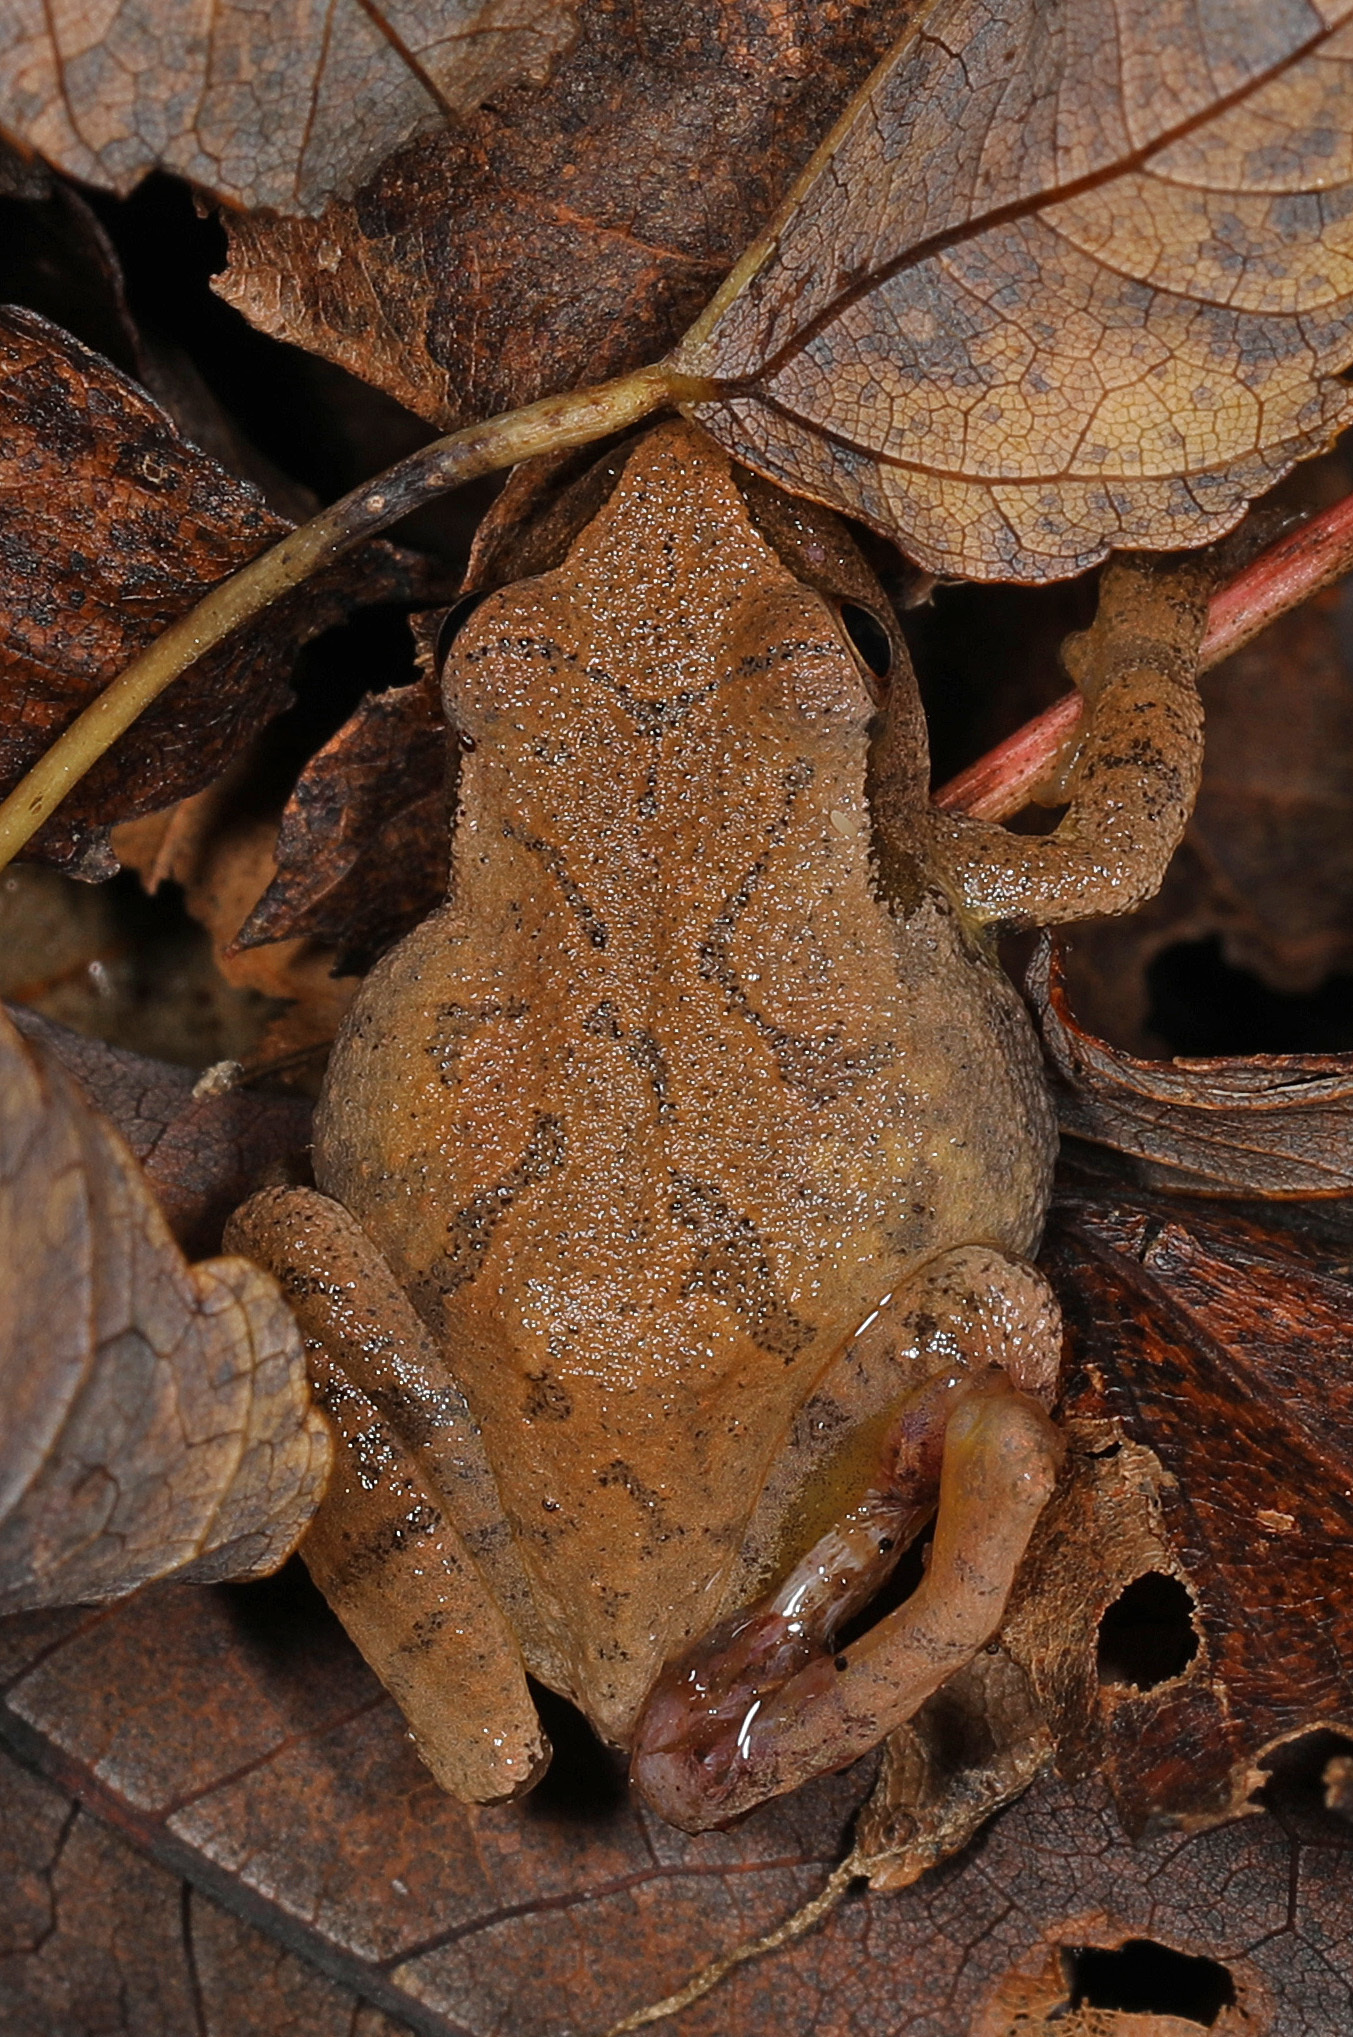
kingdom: Animalia
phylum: Chordata
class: Amphibia
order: Anura
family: Hylidae
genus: Pseudacris
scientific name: Pseudacris crucifer
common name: Spring peeper
